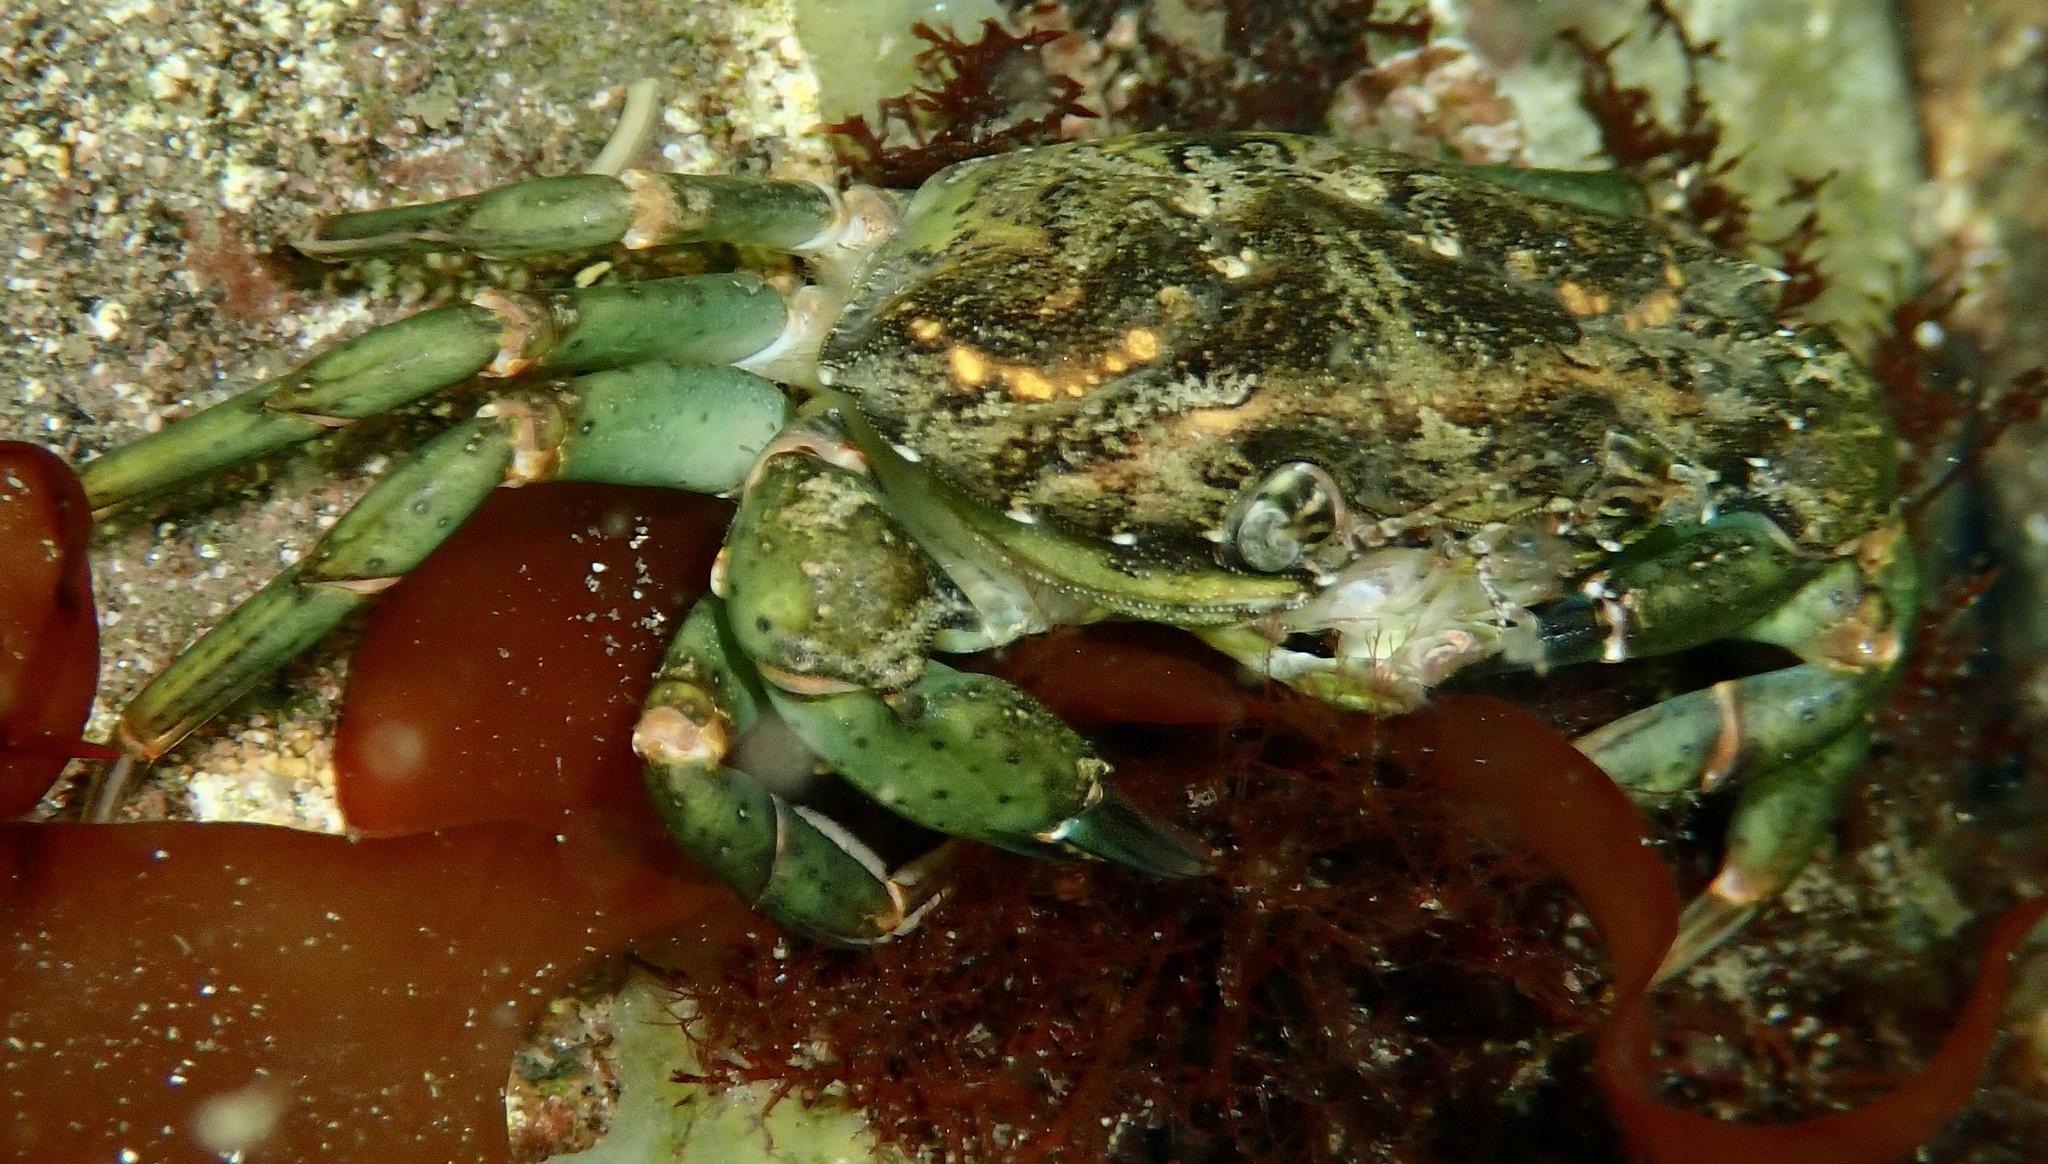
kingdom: Animalia
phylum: Arthropoda
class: Malacostraca
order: Decapoda
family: Carcinidae
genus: Carcinus
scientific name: Carcinus maenas
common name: European green crab
